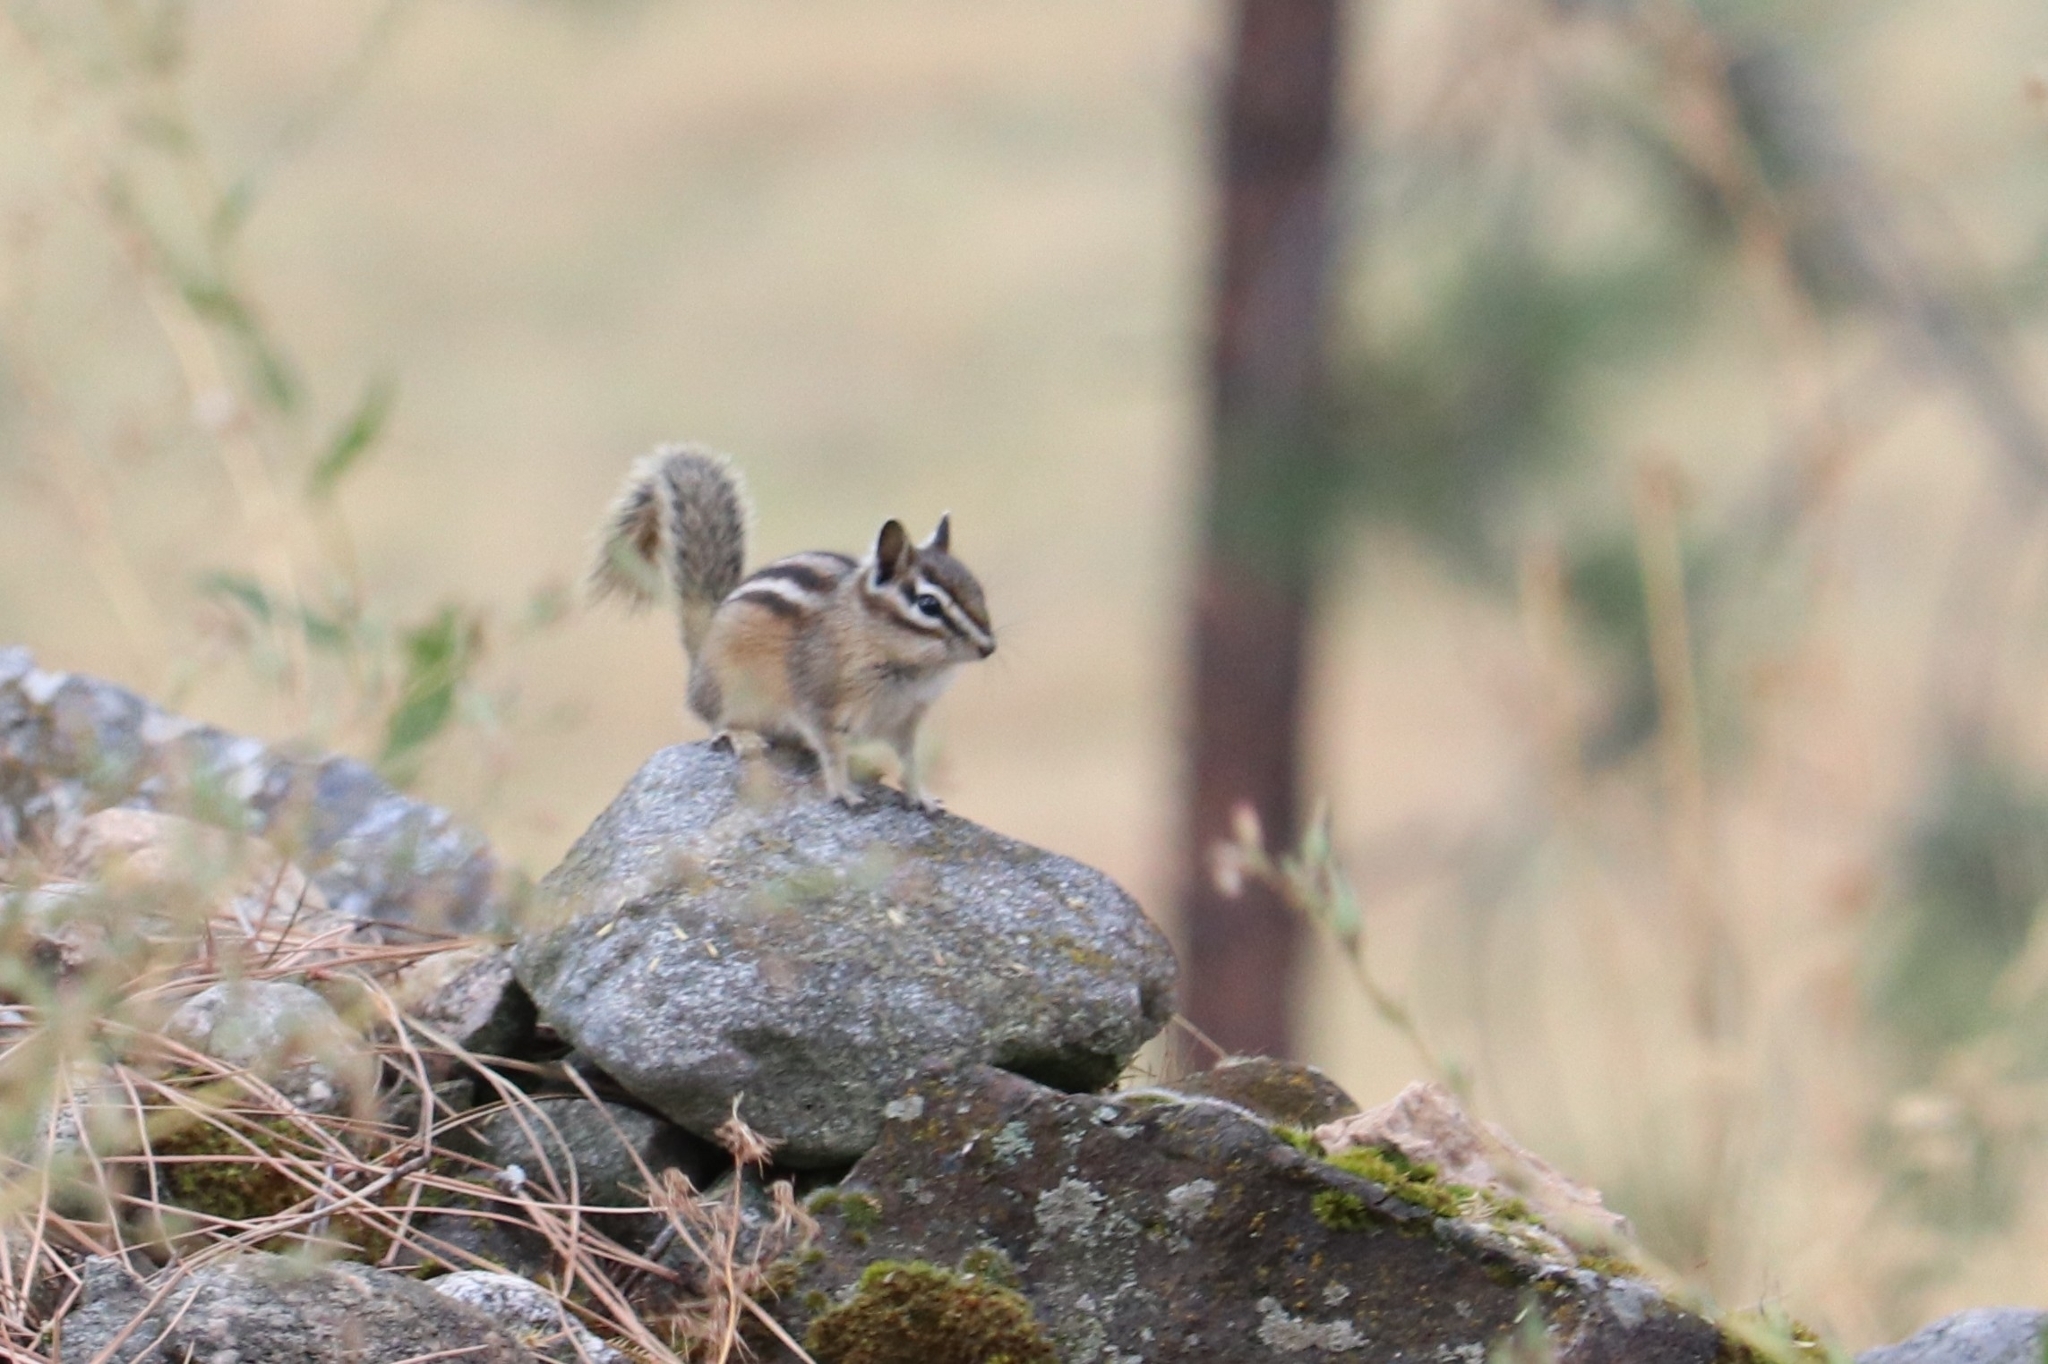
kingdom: Animalia
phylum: Chordata
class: Mammalia
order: Rodentia
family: Sciuridae
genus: Tamias
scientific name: Tamias amoenus
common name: Yellow-pine chipmunk
